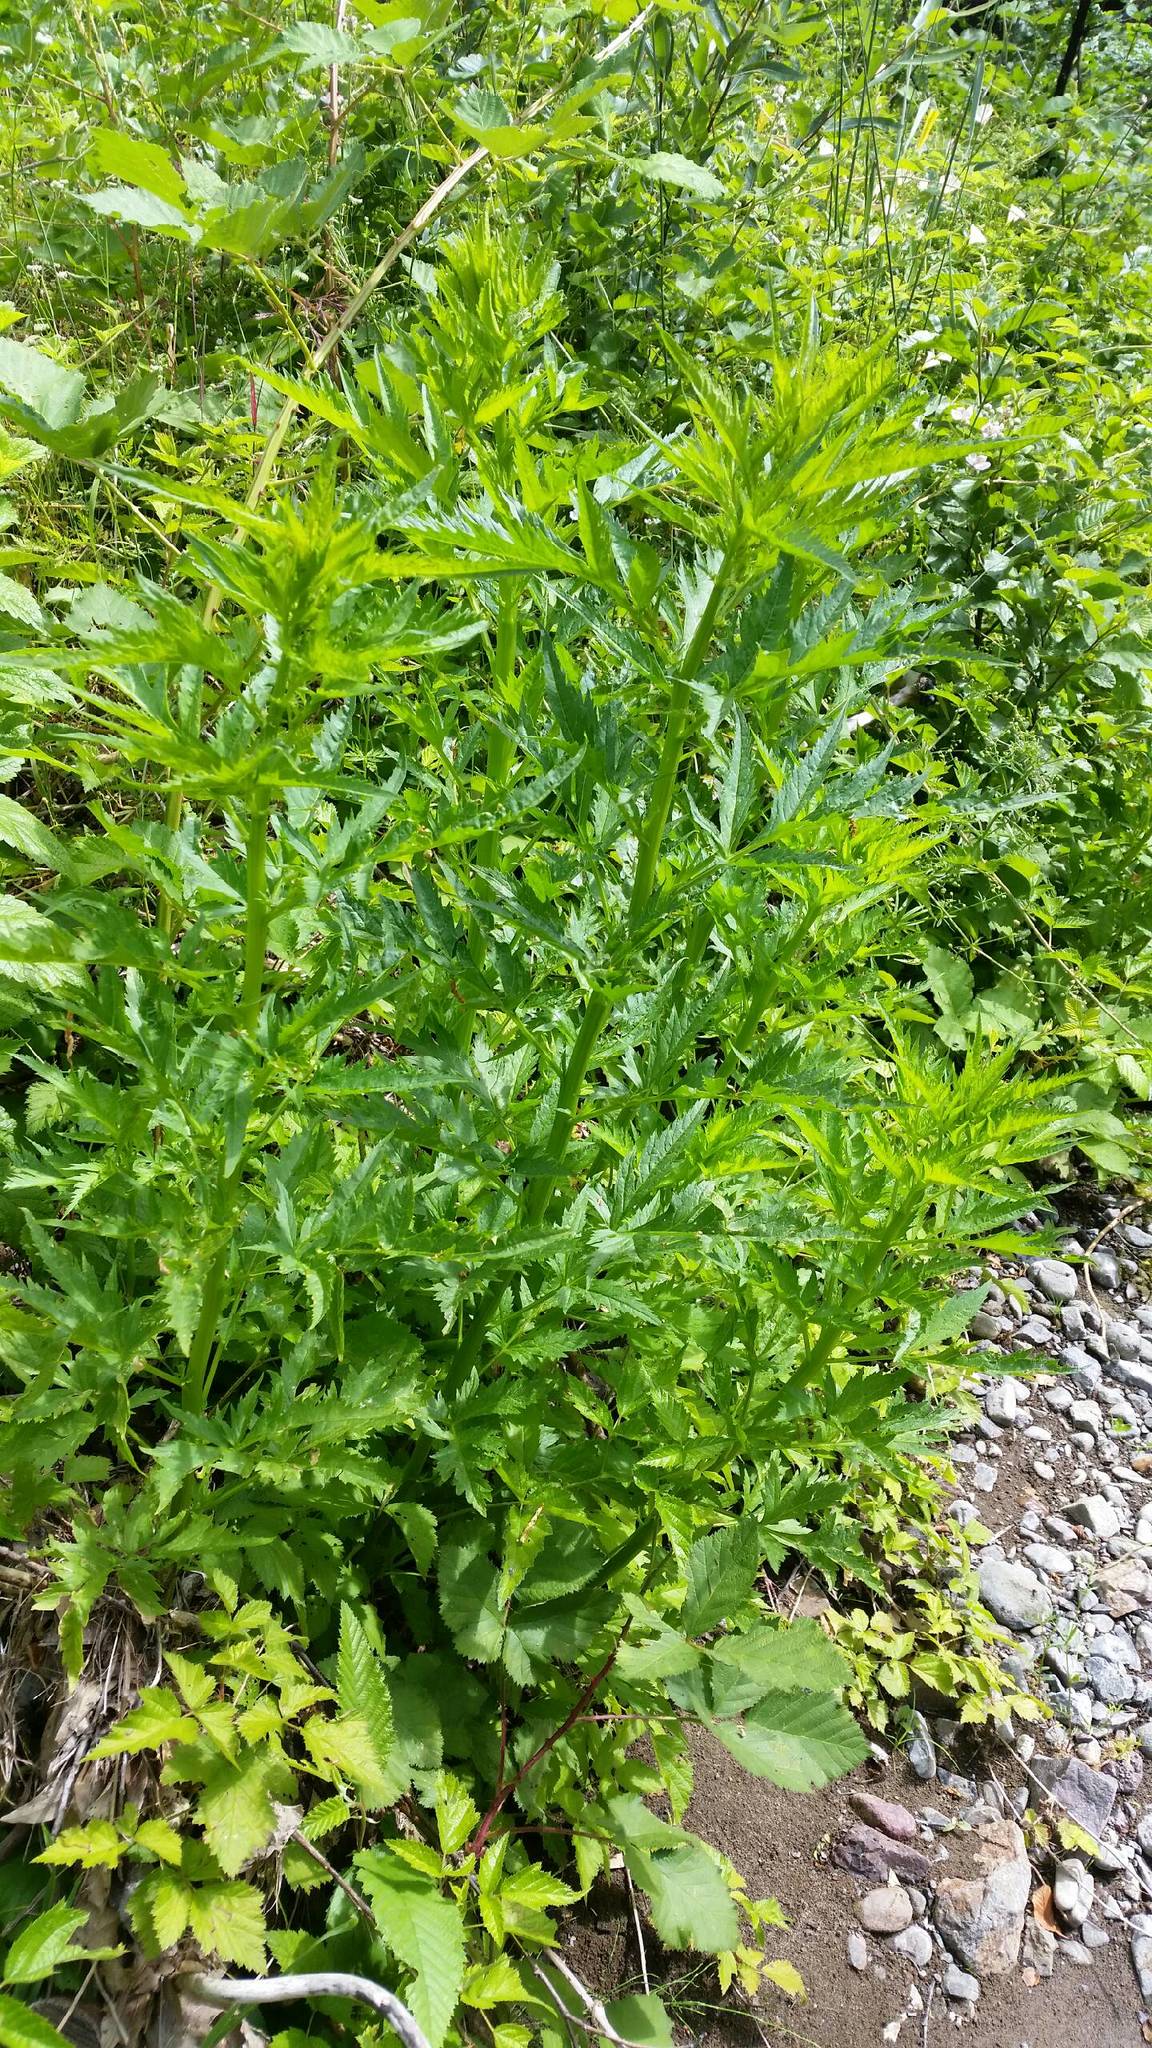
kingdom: Plantae
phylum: Tracheophyta
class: Magnoliopsida
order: Cucurbitales
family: Datiscaceae
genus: Datisca
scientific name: Datisca glomerata
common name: Durango-root
